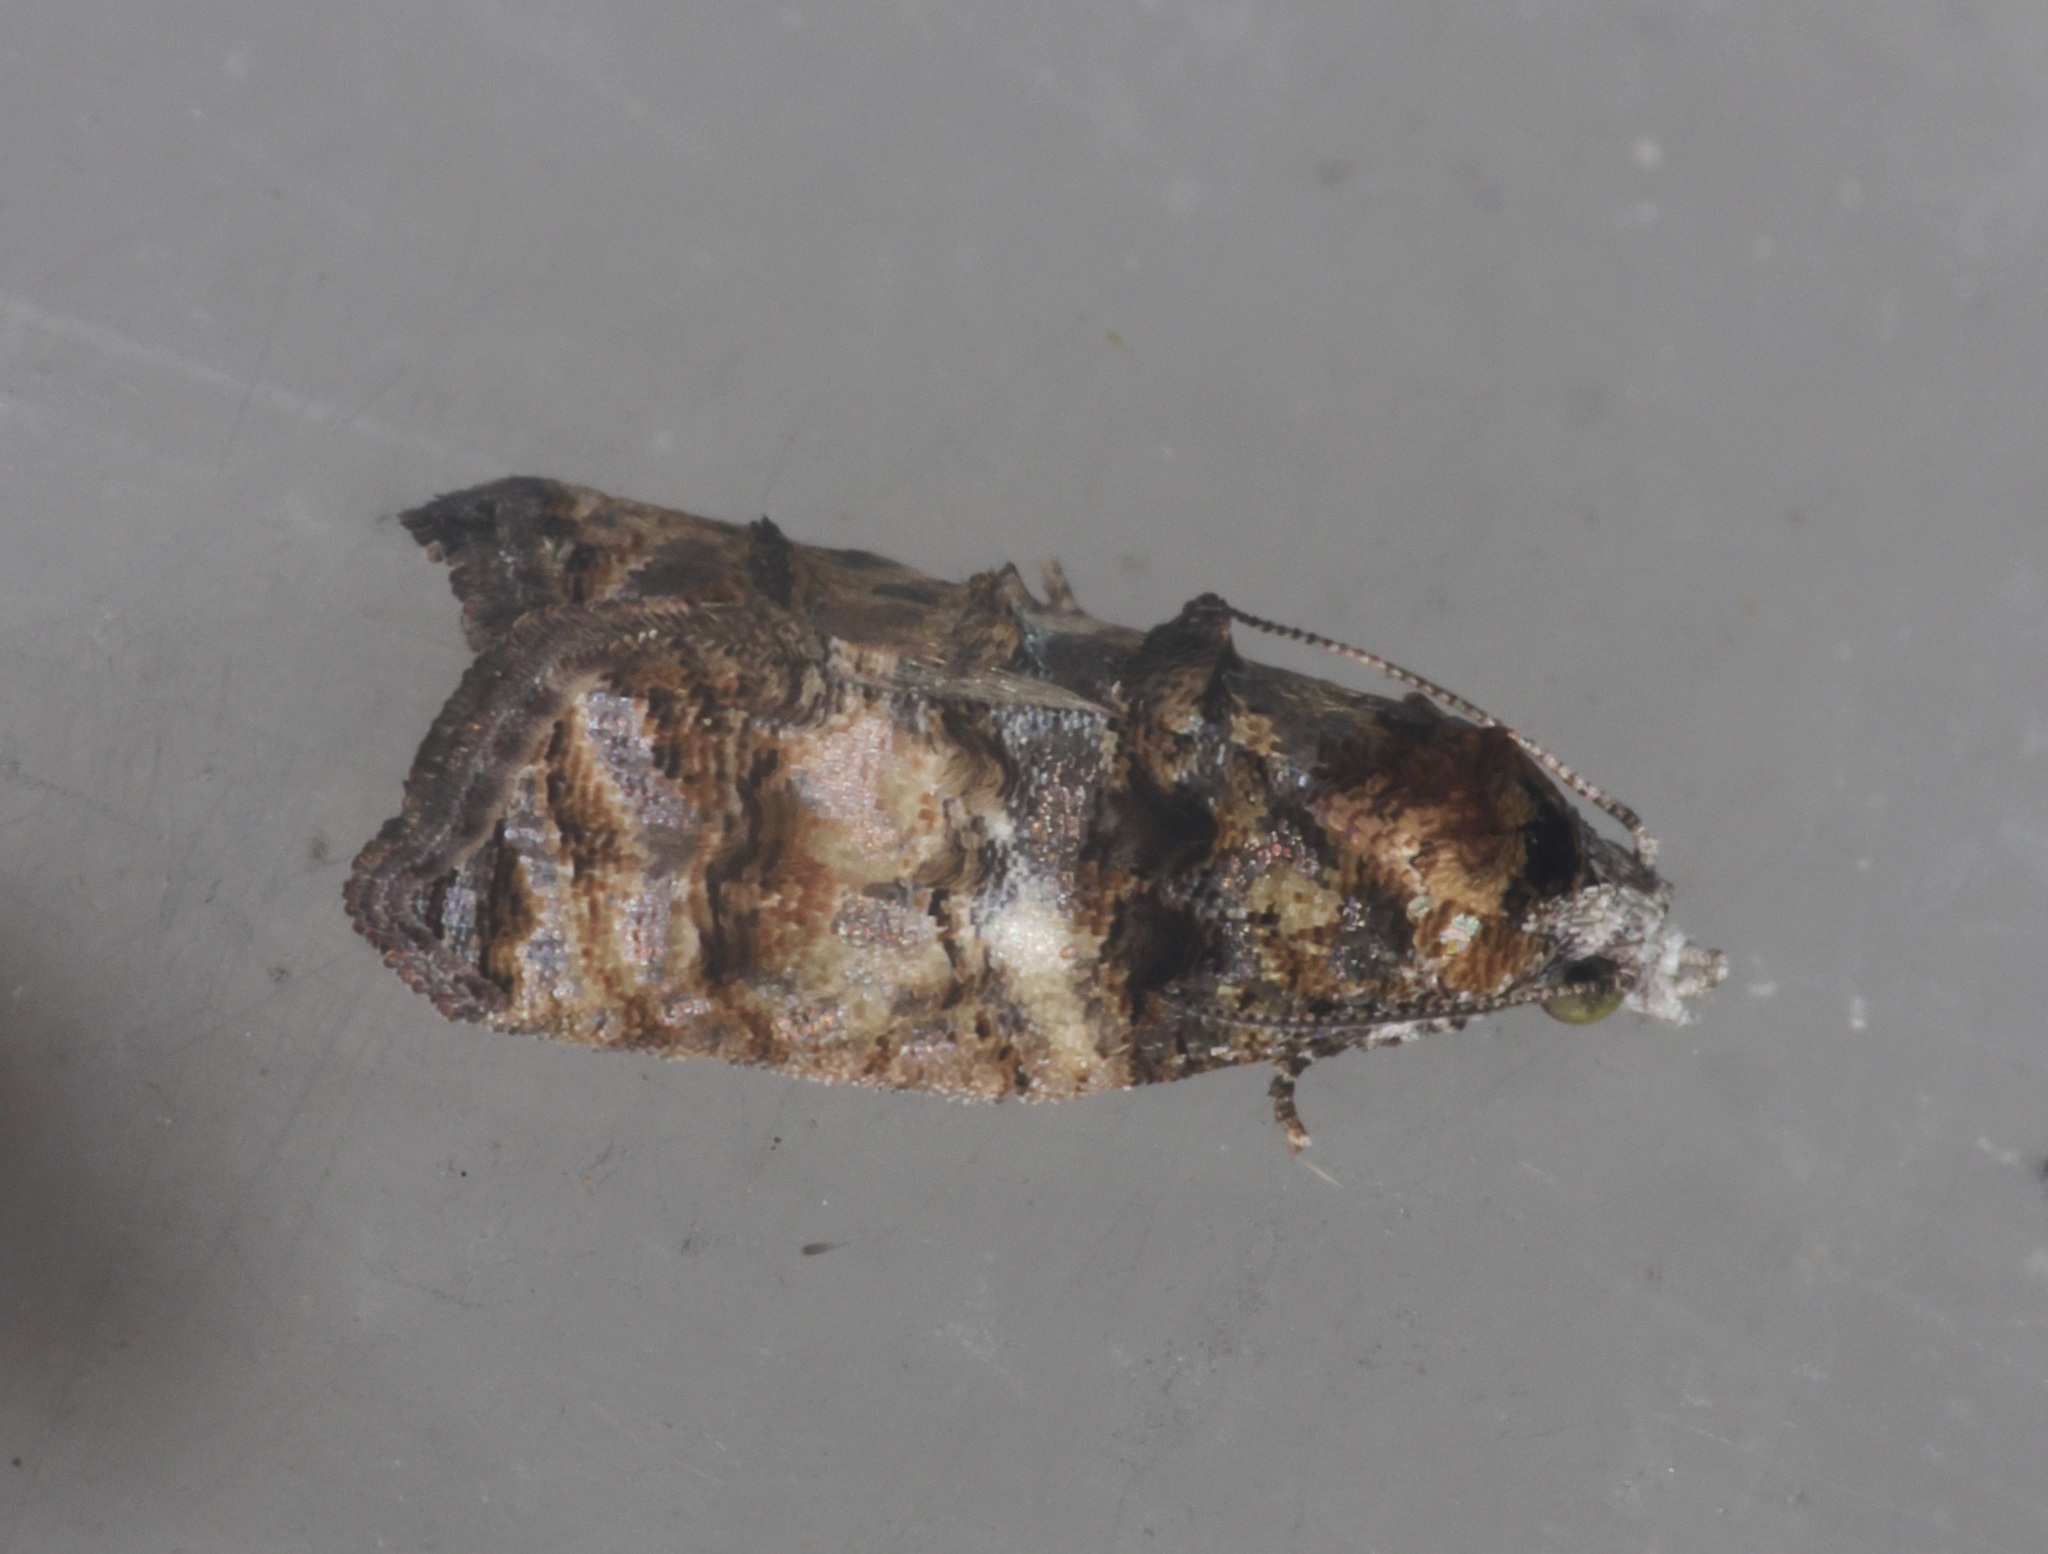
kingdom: Animalia
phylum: Arthropoda
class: Insecta
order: Lepidoptera
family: Tortricidae
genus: Polylopha
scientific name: Polylopha cassiicola
